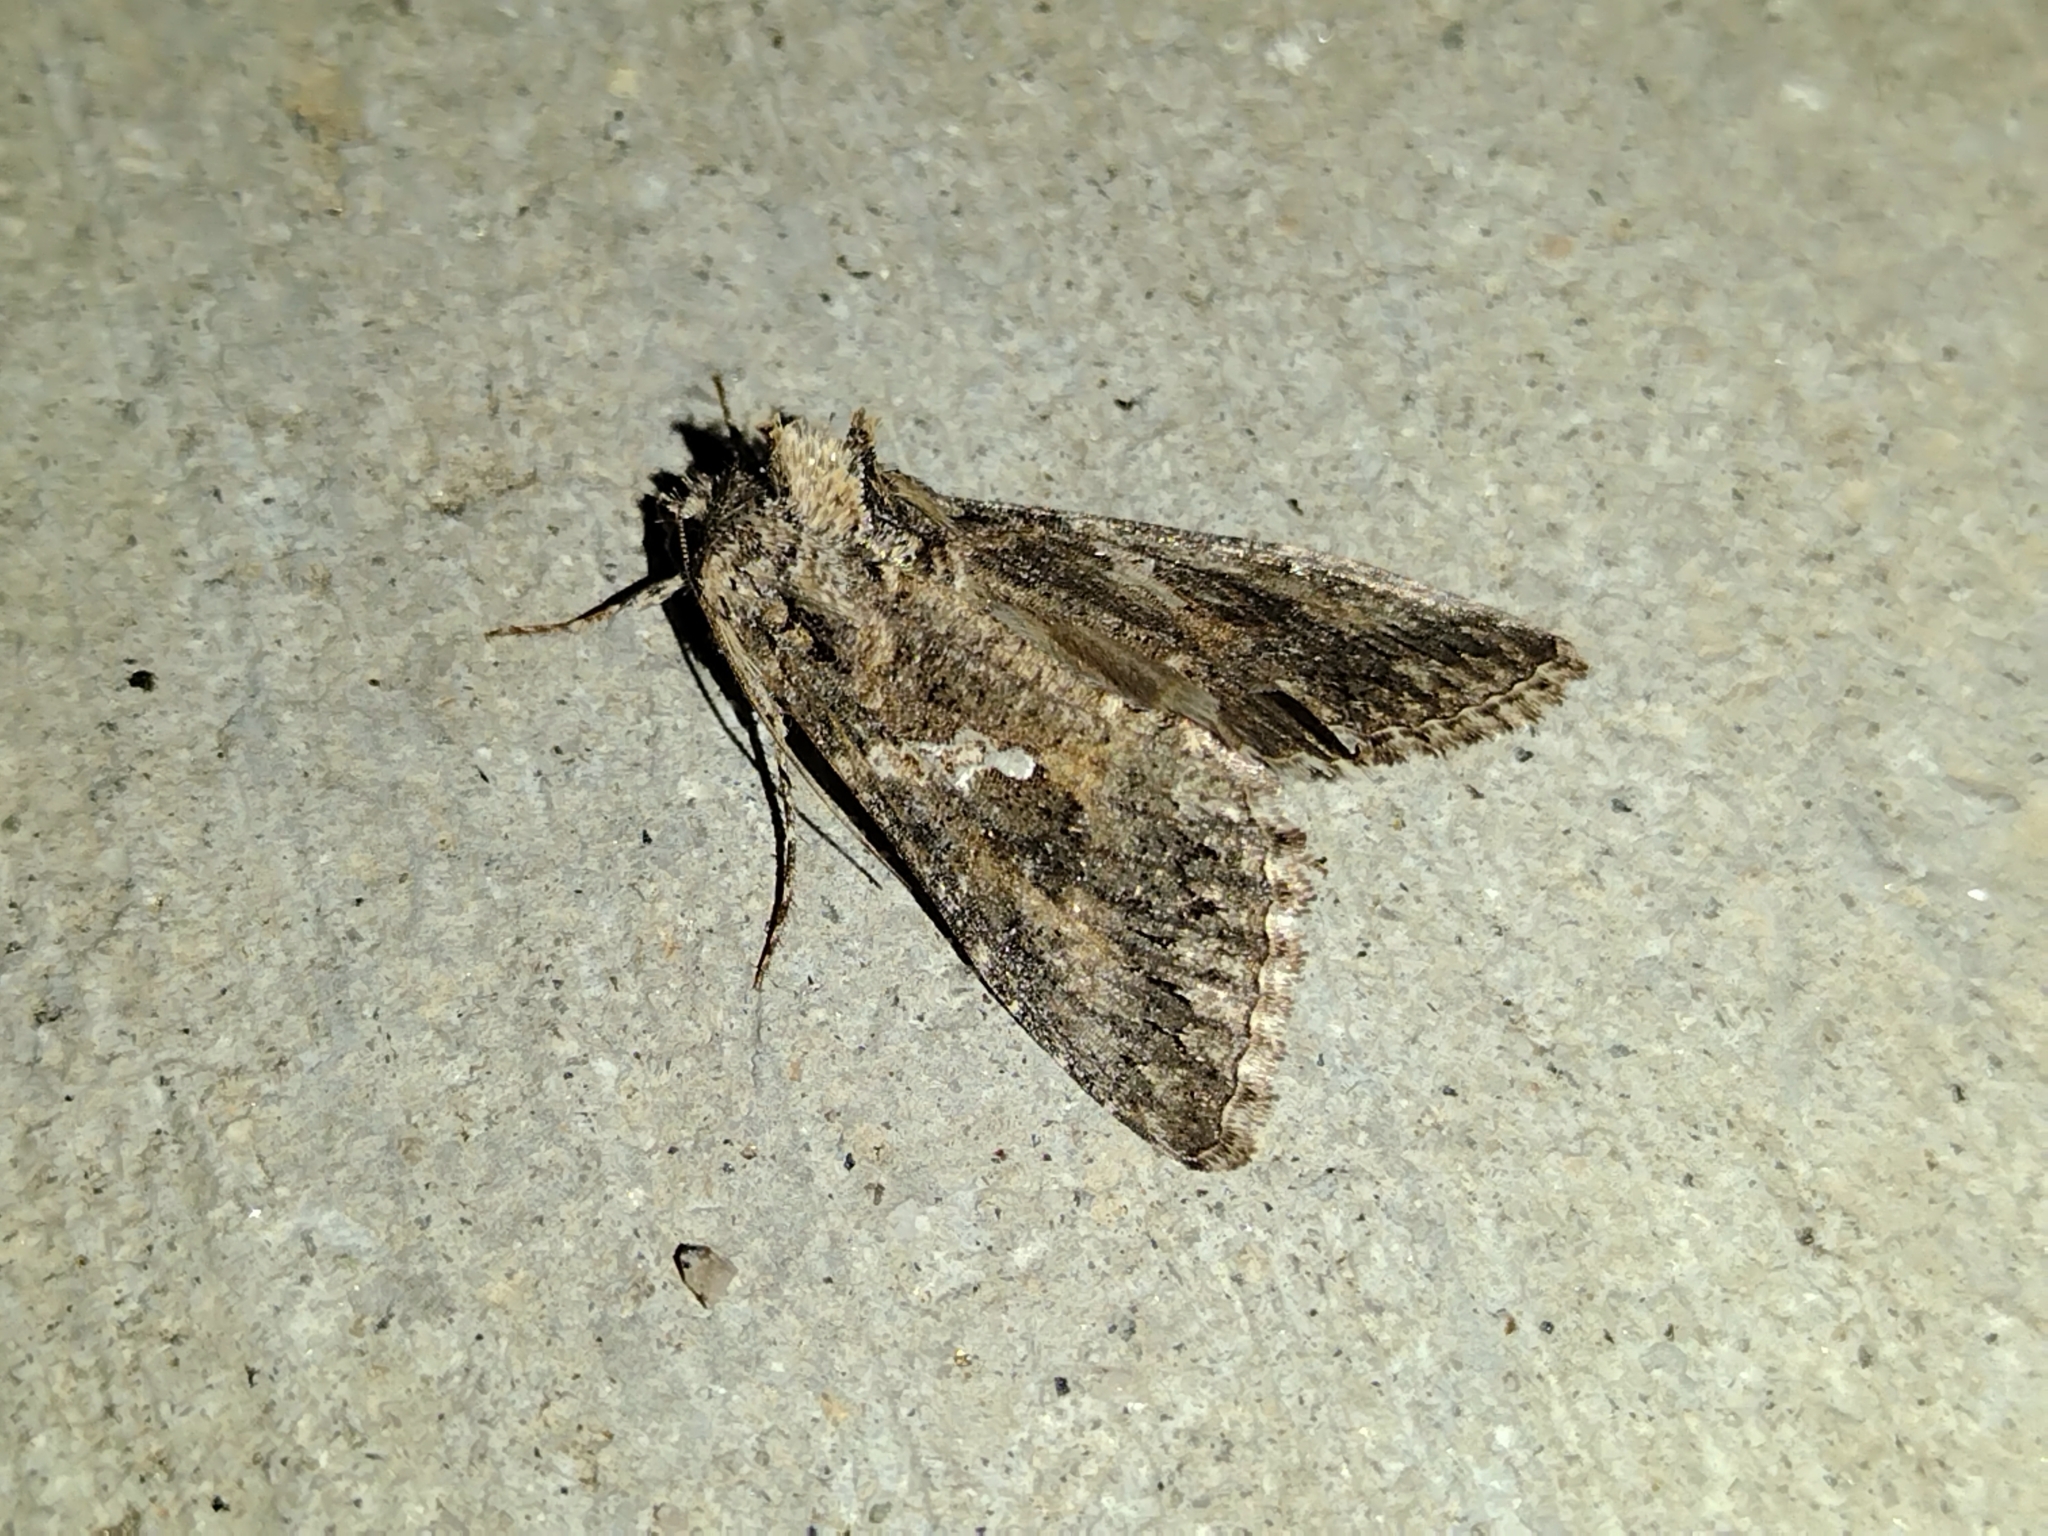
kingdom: Animalia
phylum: Arthropoda
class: Insecta
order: Lepidoptera
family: Noctuidae
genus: Trichoplusia
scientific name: Trichoplusia ni
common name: Ni moth
